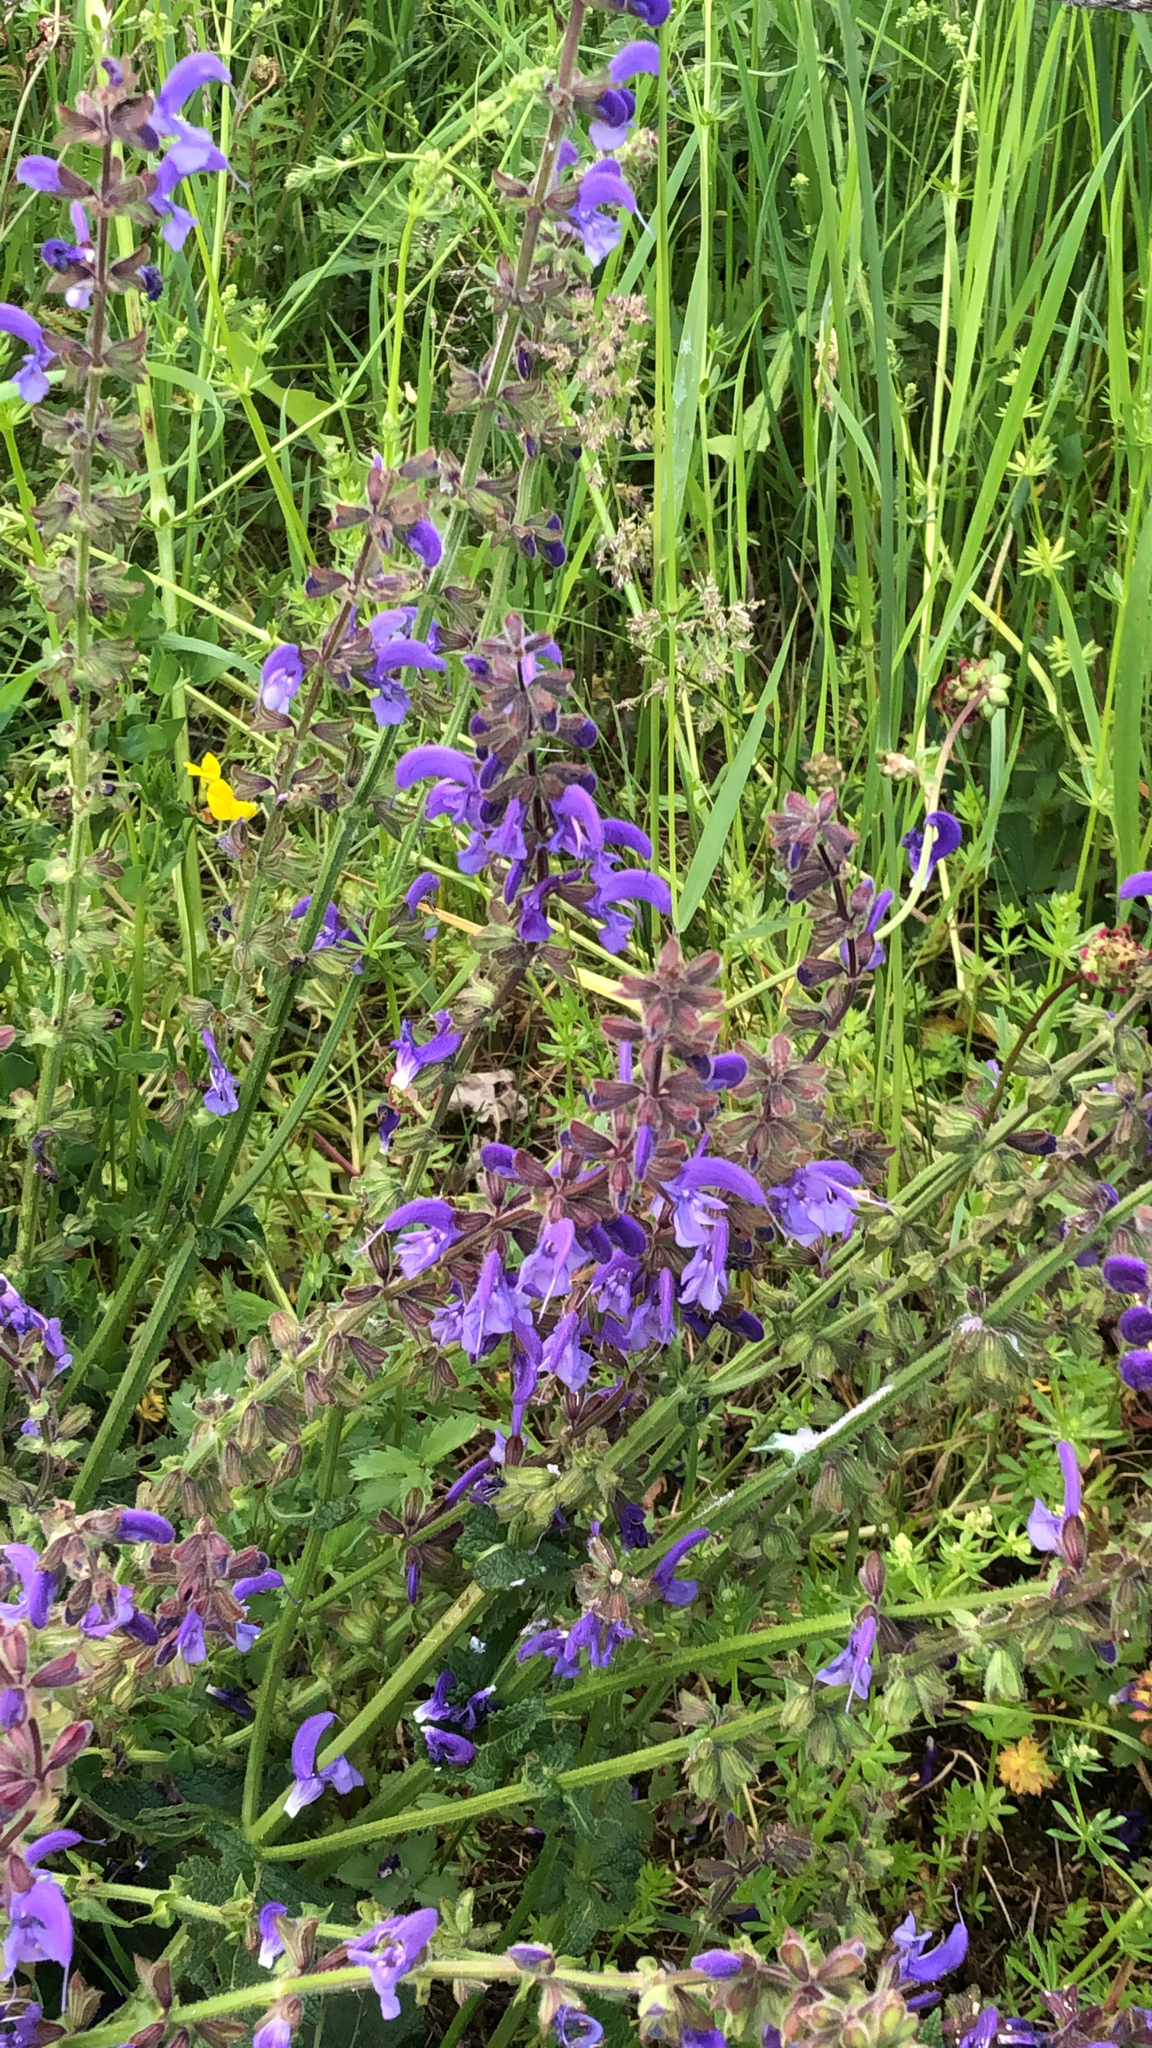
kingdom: Plantae
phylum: Tracheophyta
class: Magnoliopsida
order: Lamiales
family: Lamiaceae
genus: Salvia
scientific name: Salvia pratensis
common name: Meadow sage
